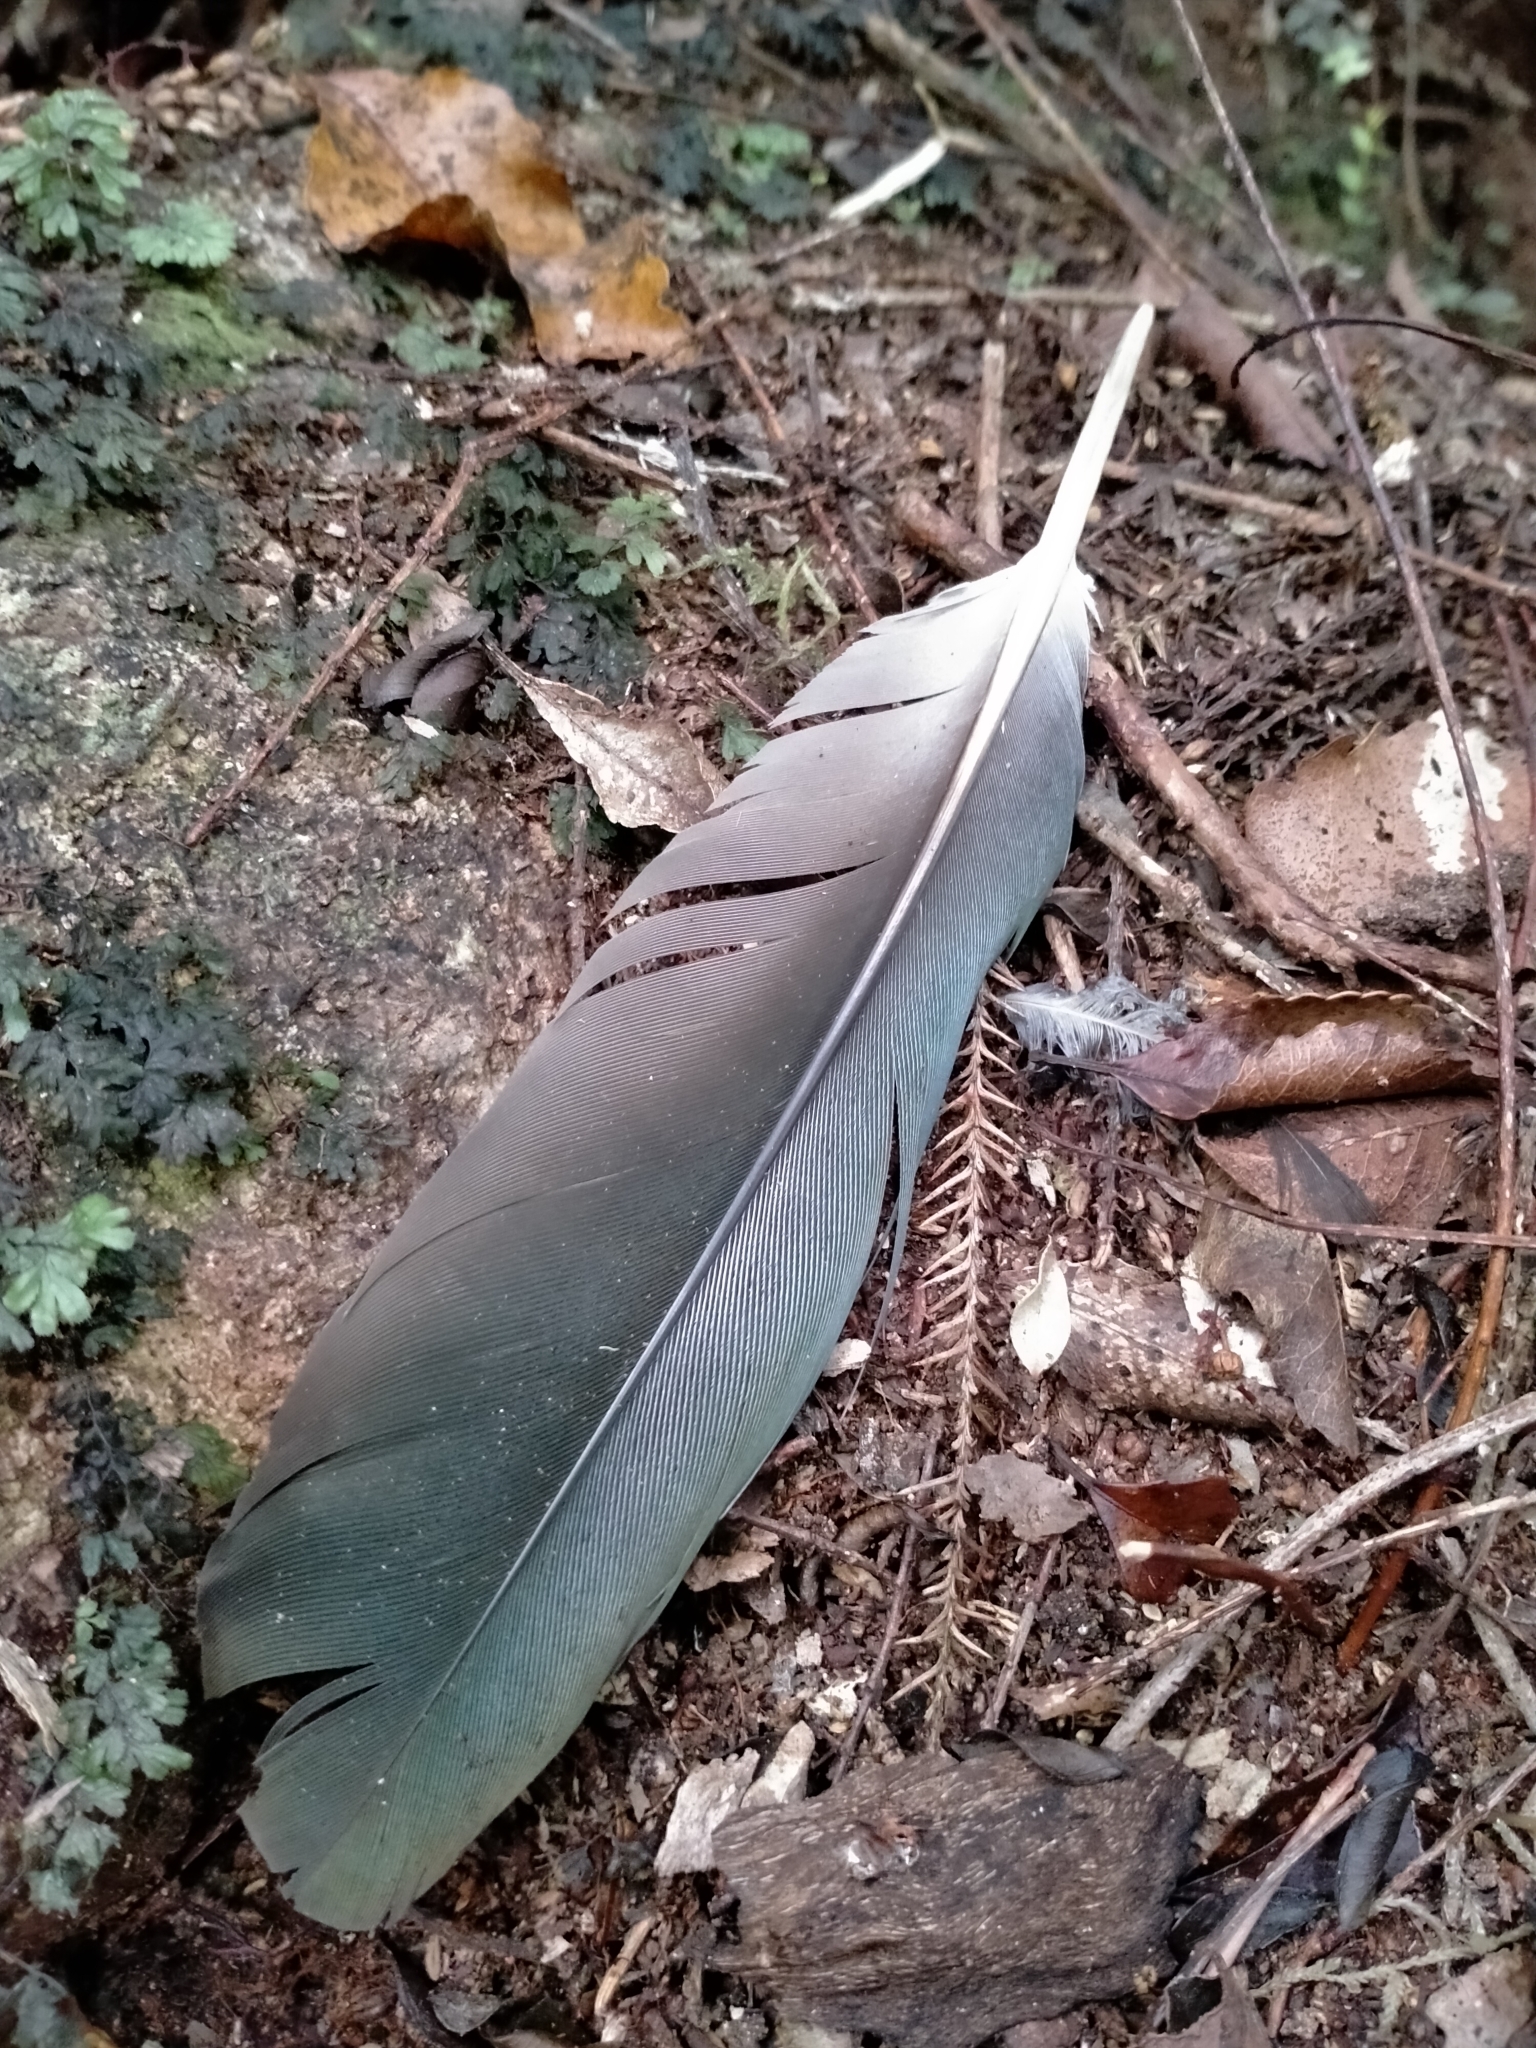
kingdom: Animalia
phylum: Chordata
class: Aves
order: Columbiformes
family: Columbidae
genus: Hemiphaga
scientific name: Hemiphaga novaeseelandiae
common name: New zealand pigeon
